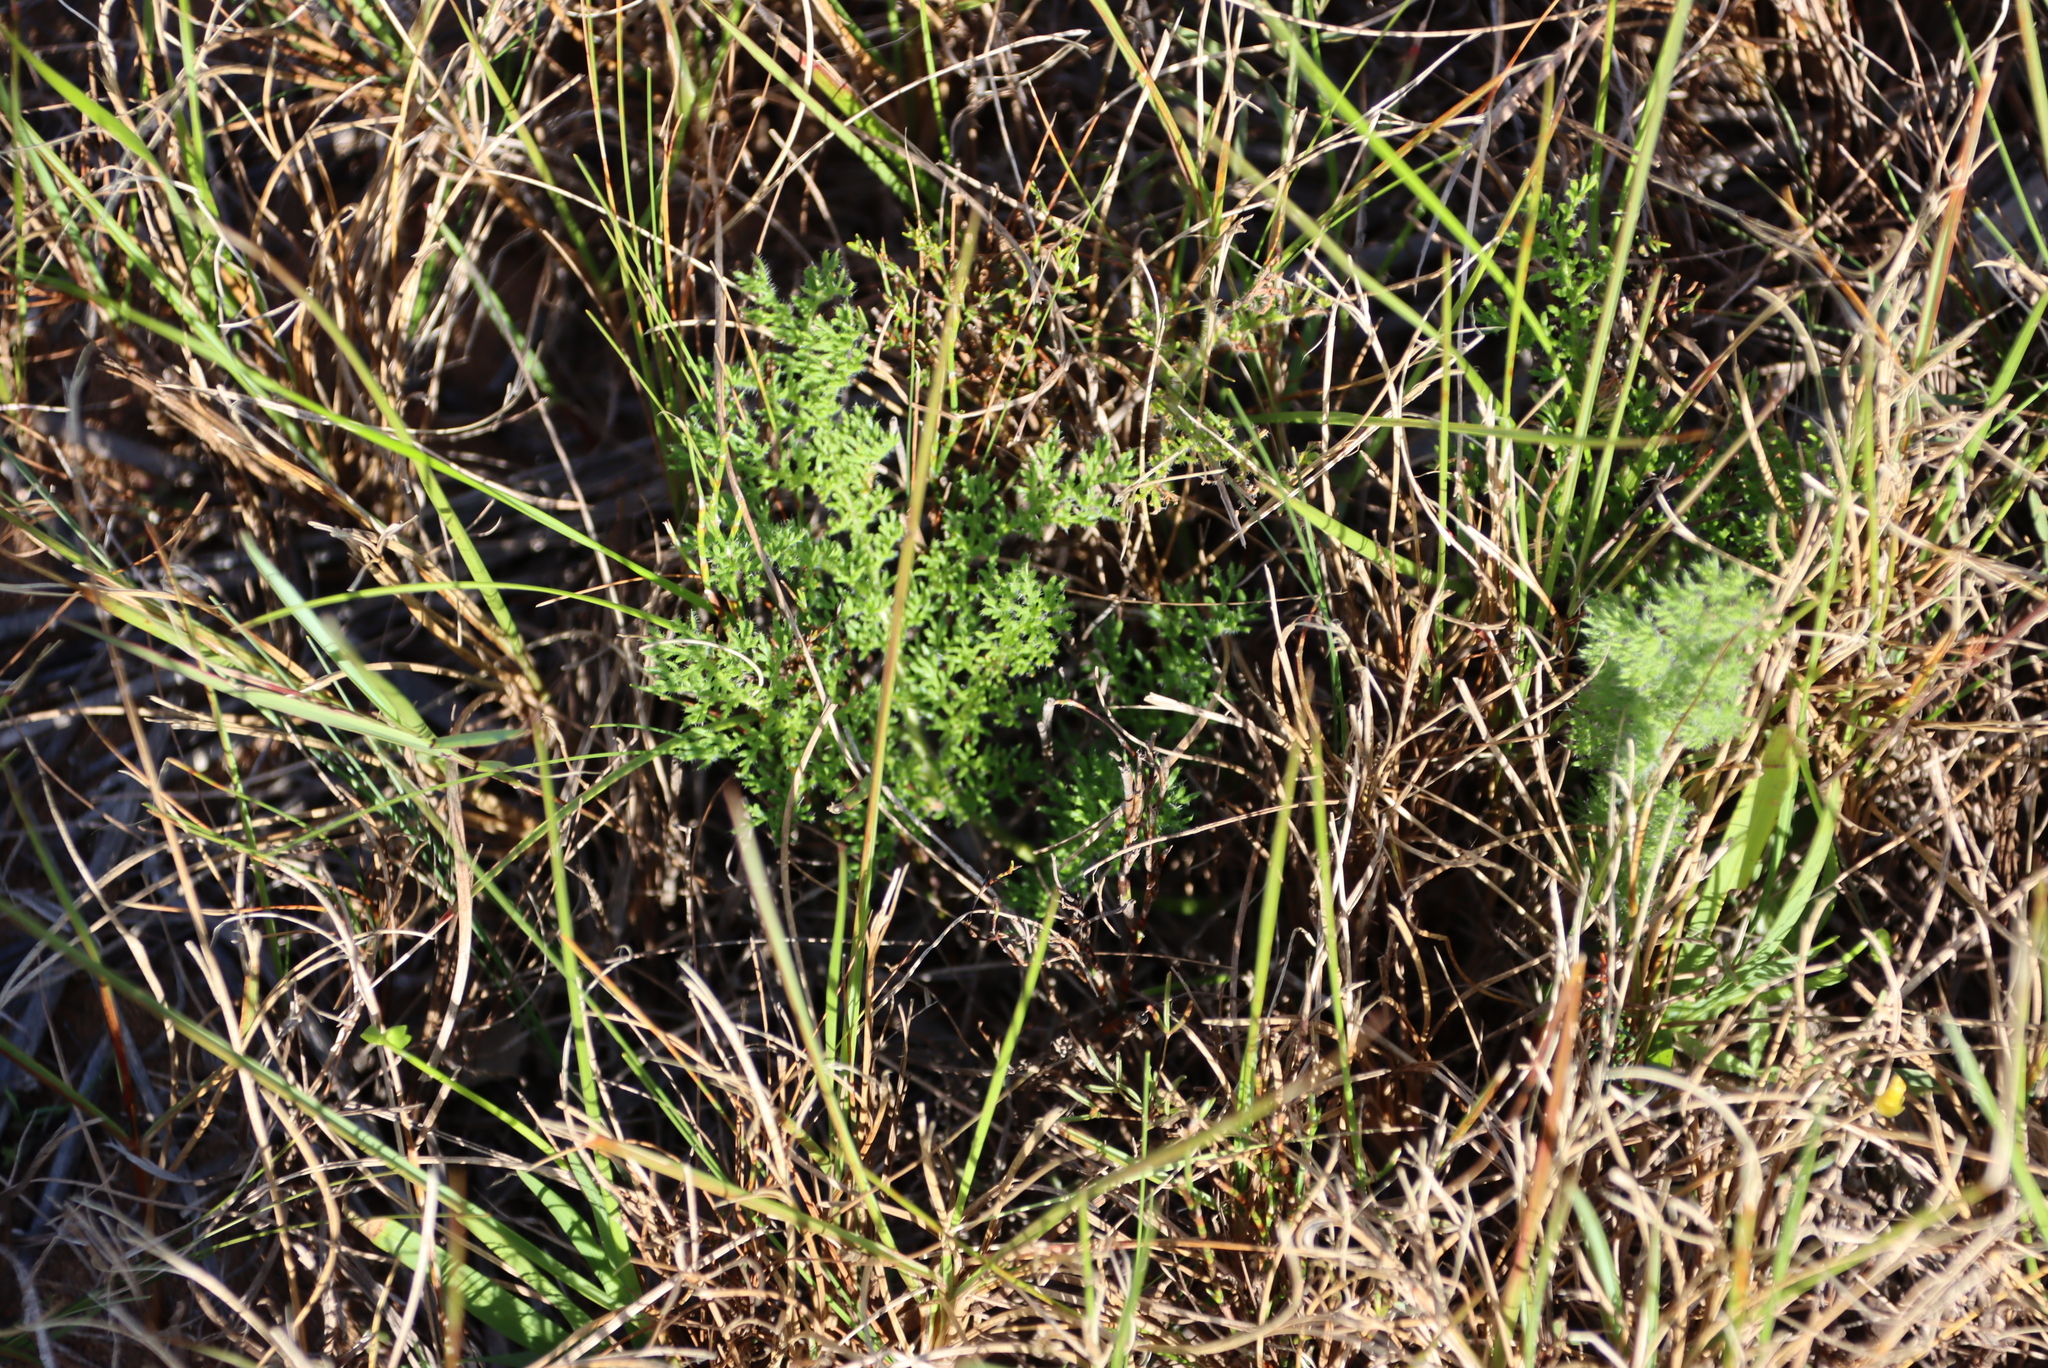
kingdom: Plantae
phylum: Tracheophyta
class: Magnoliopsida
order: Geraniales
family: Geraniaceae
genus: Pelargonium
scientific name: Pelargonium triste
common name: Night-scent pelargonium
